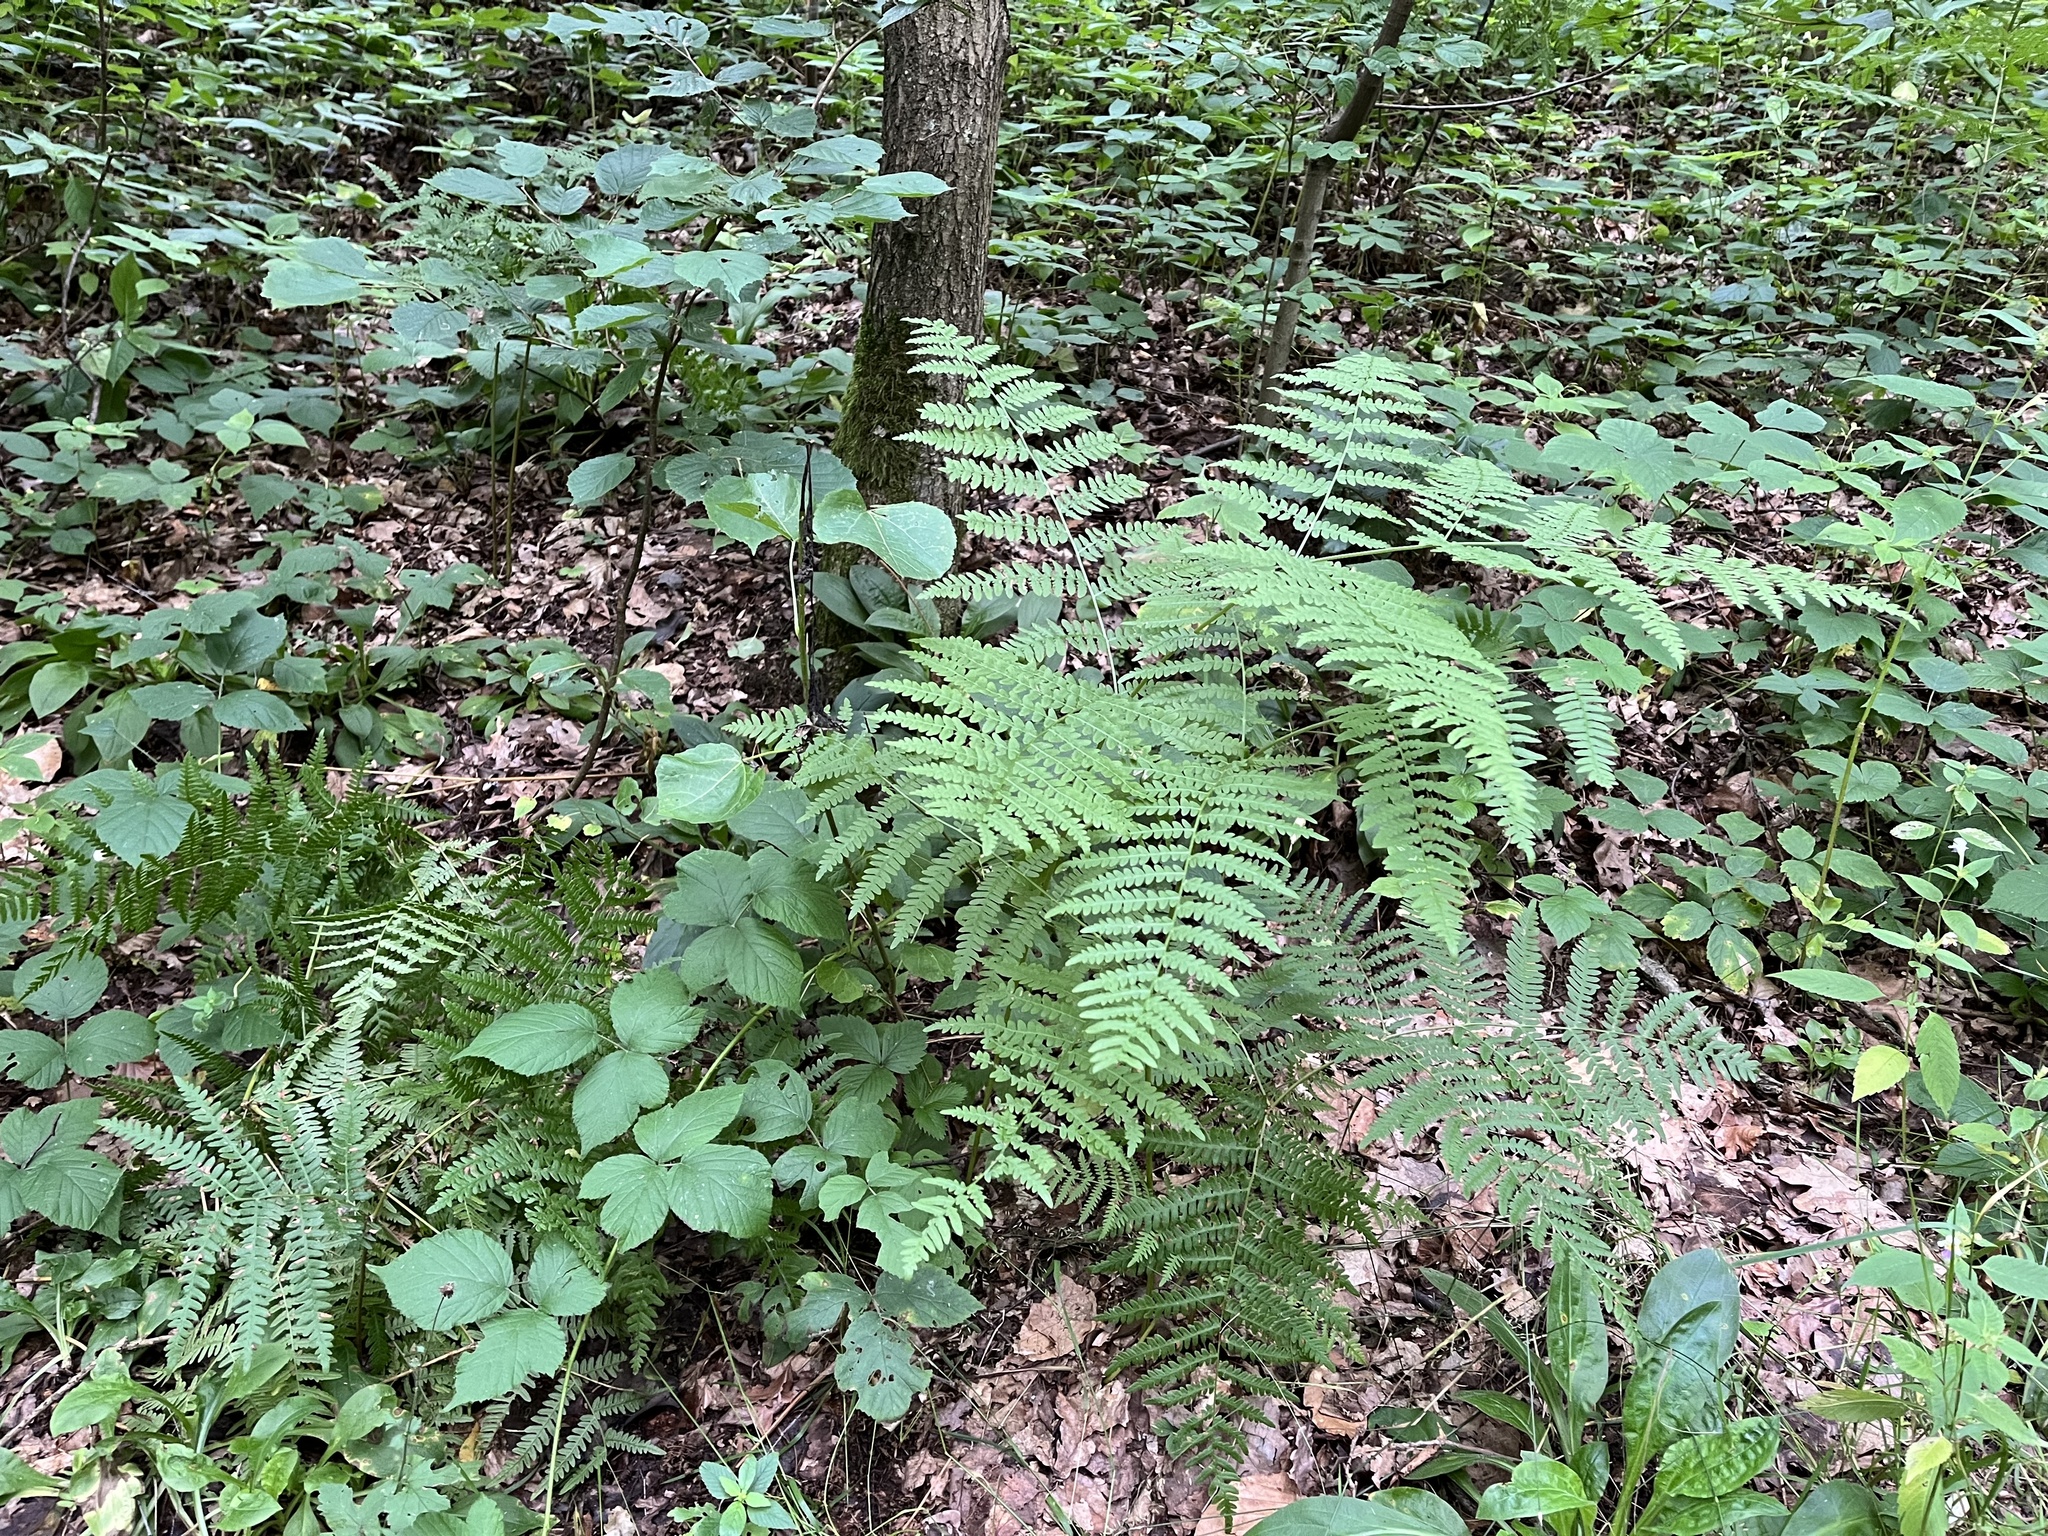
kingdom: Plantae
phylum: Tracheophyta
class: Polypodiopsida
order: Polypodiales
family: Dennstaedtiaceae
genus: Pteridium
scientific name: Pteridium aquilinum
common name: Bracken
